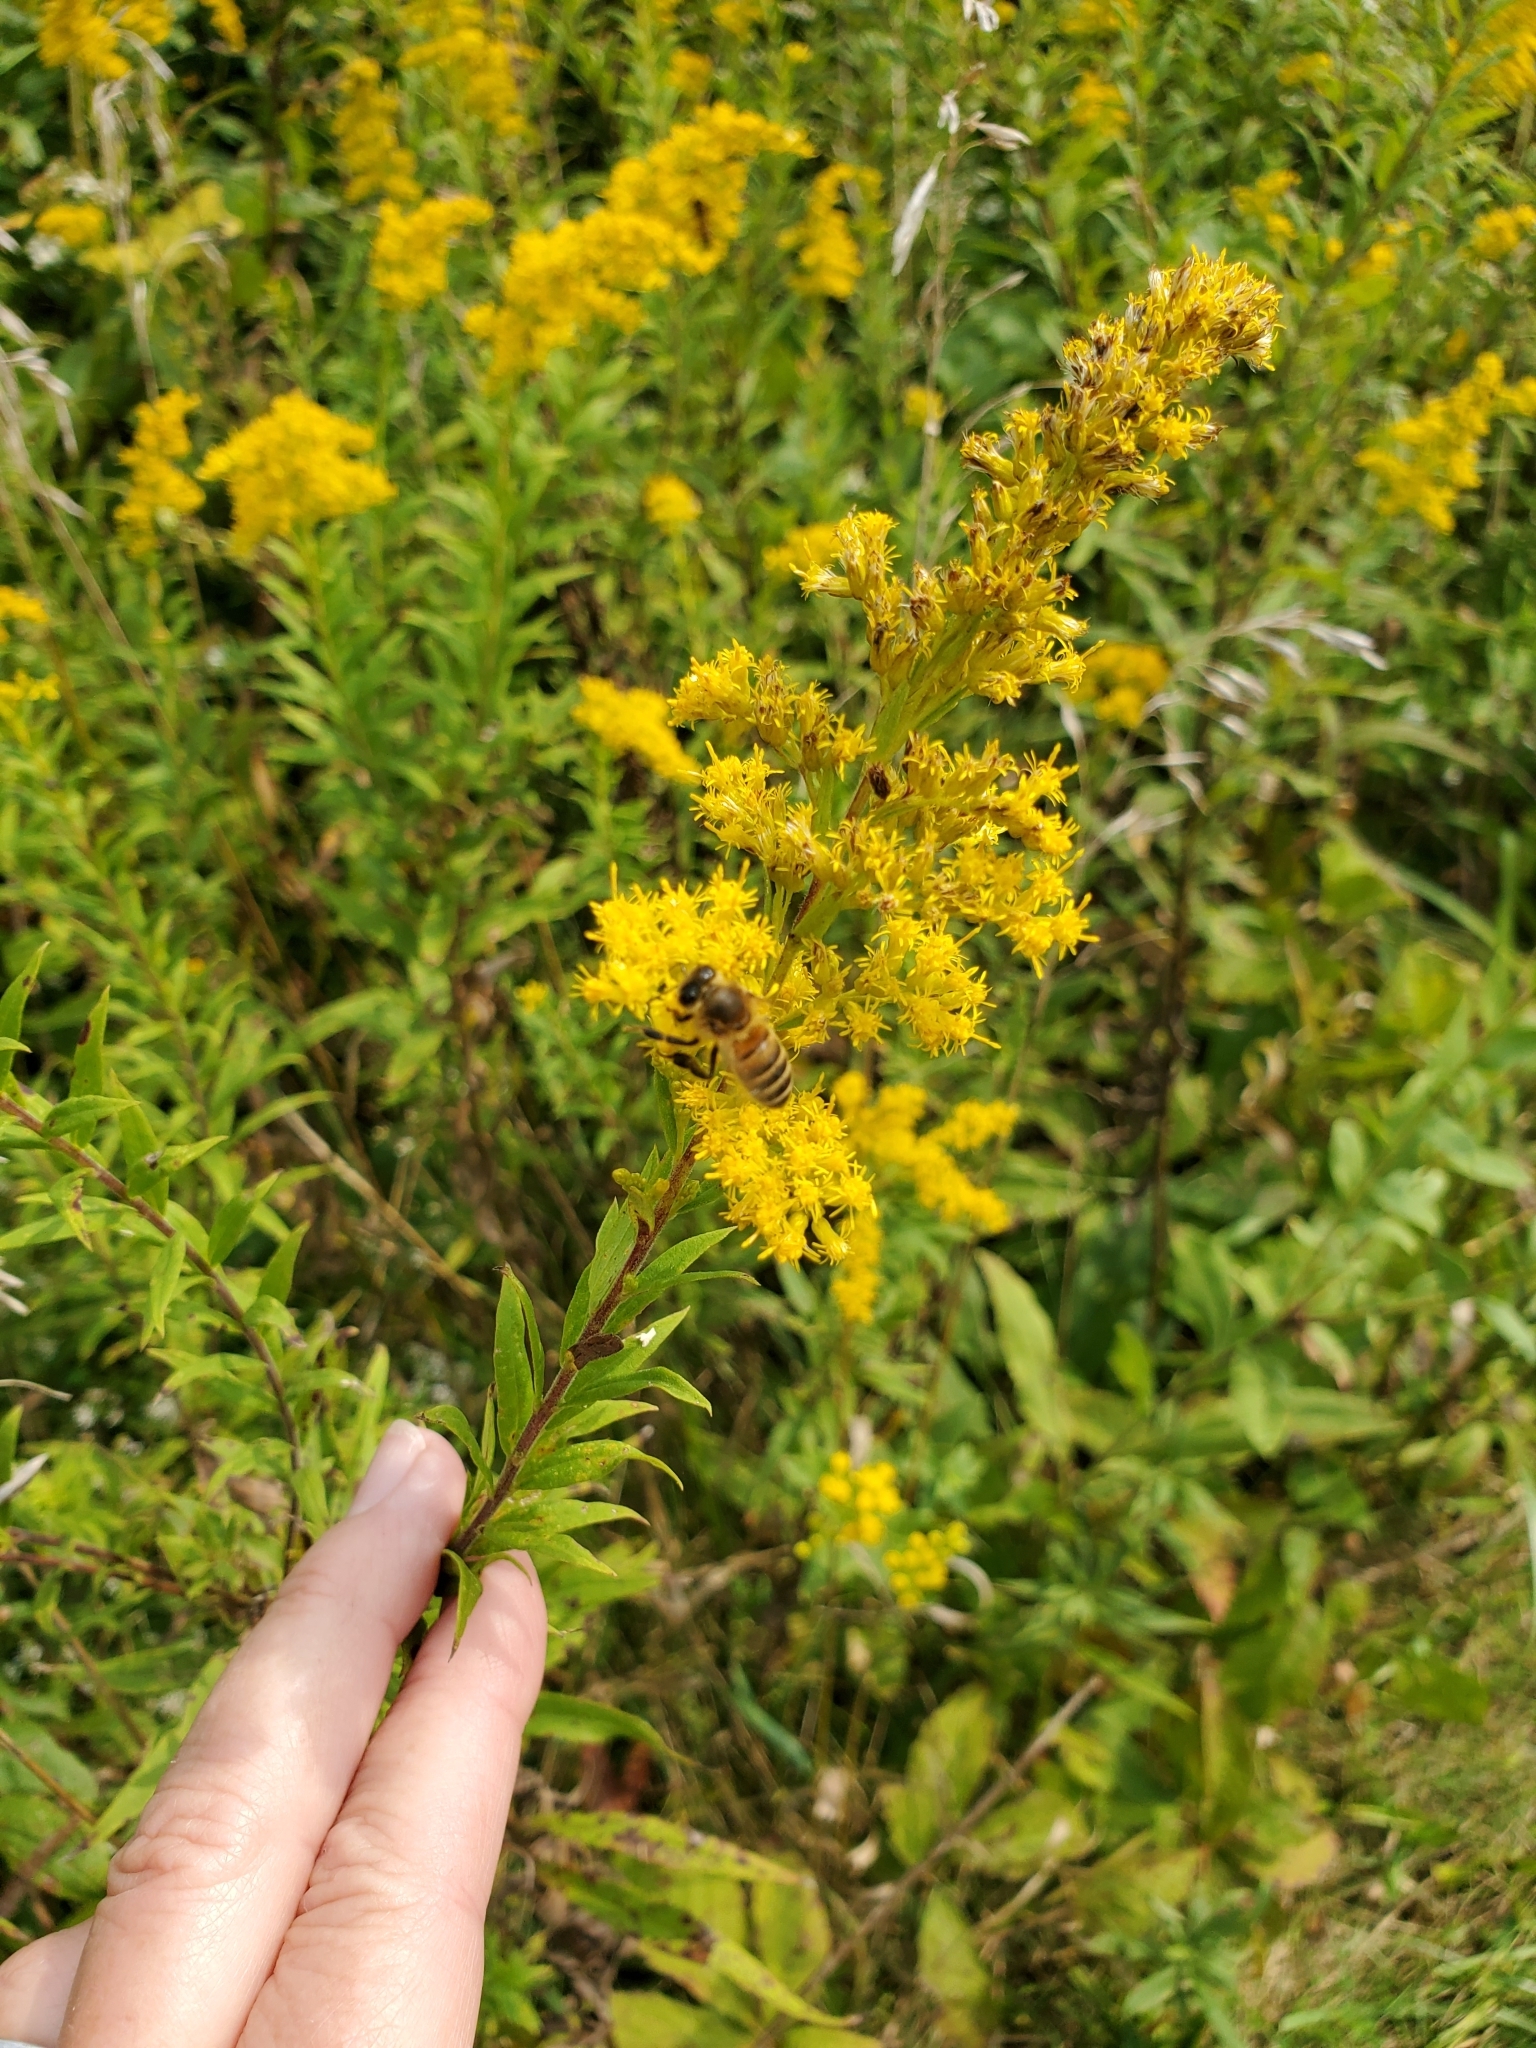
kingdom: Animalia
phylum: Arthropoda
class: Insecta
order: Hymenoptera
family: Apidae
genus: Apis
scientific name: Apis mellifera
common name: Honey bee
